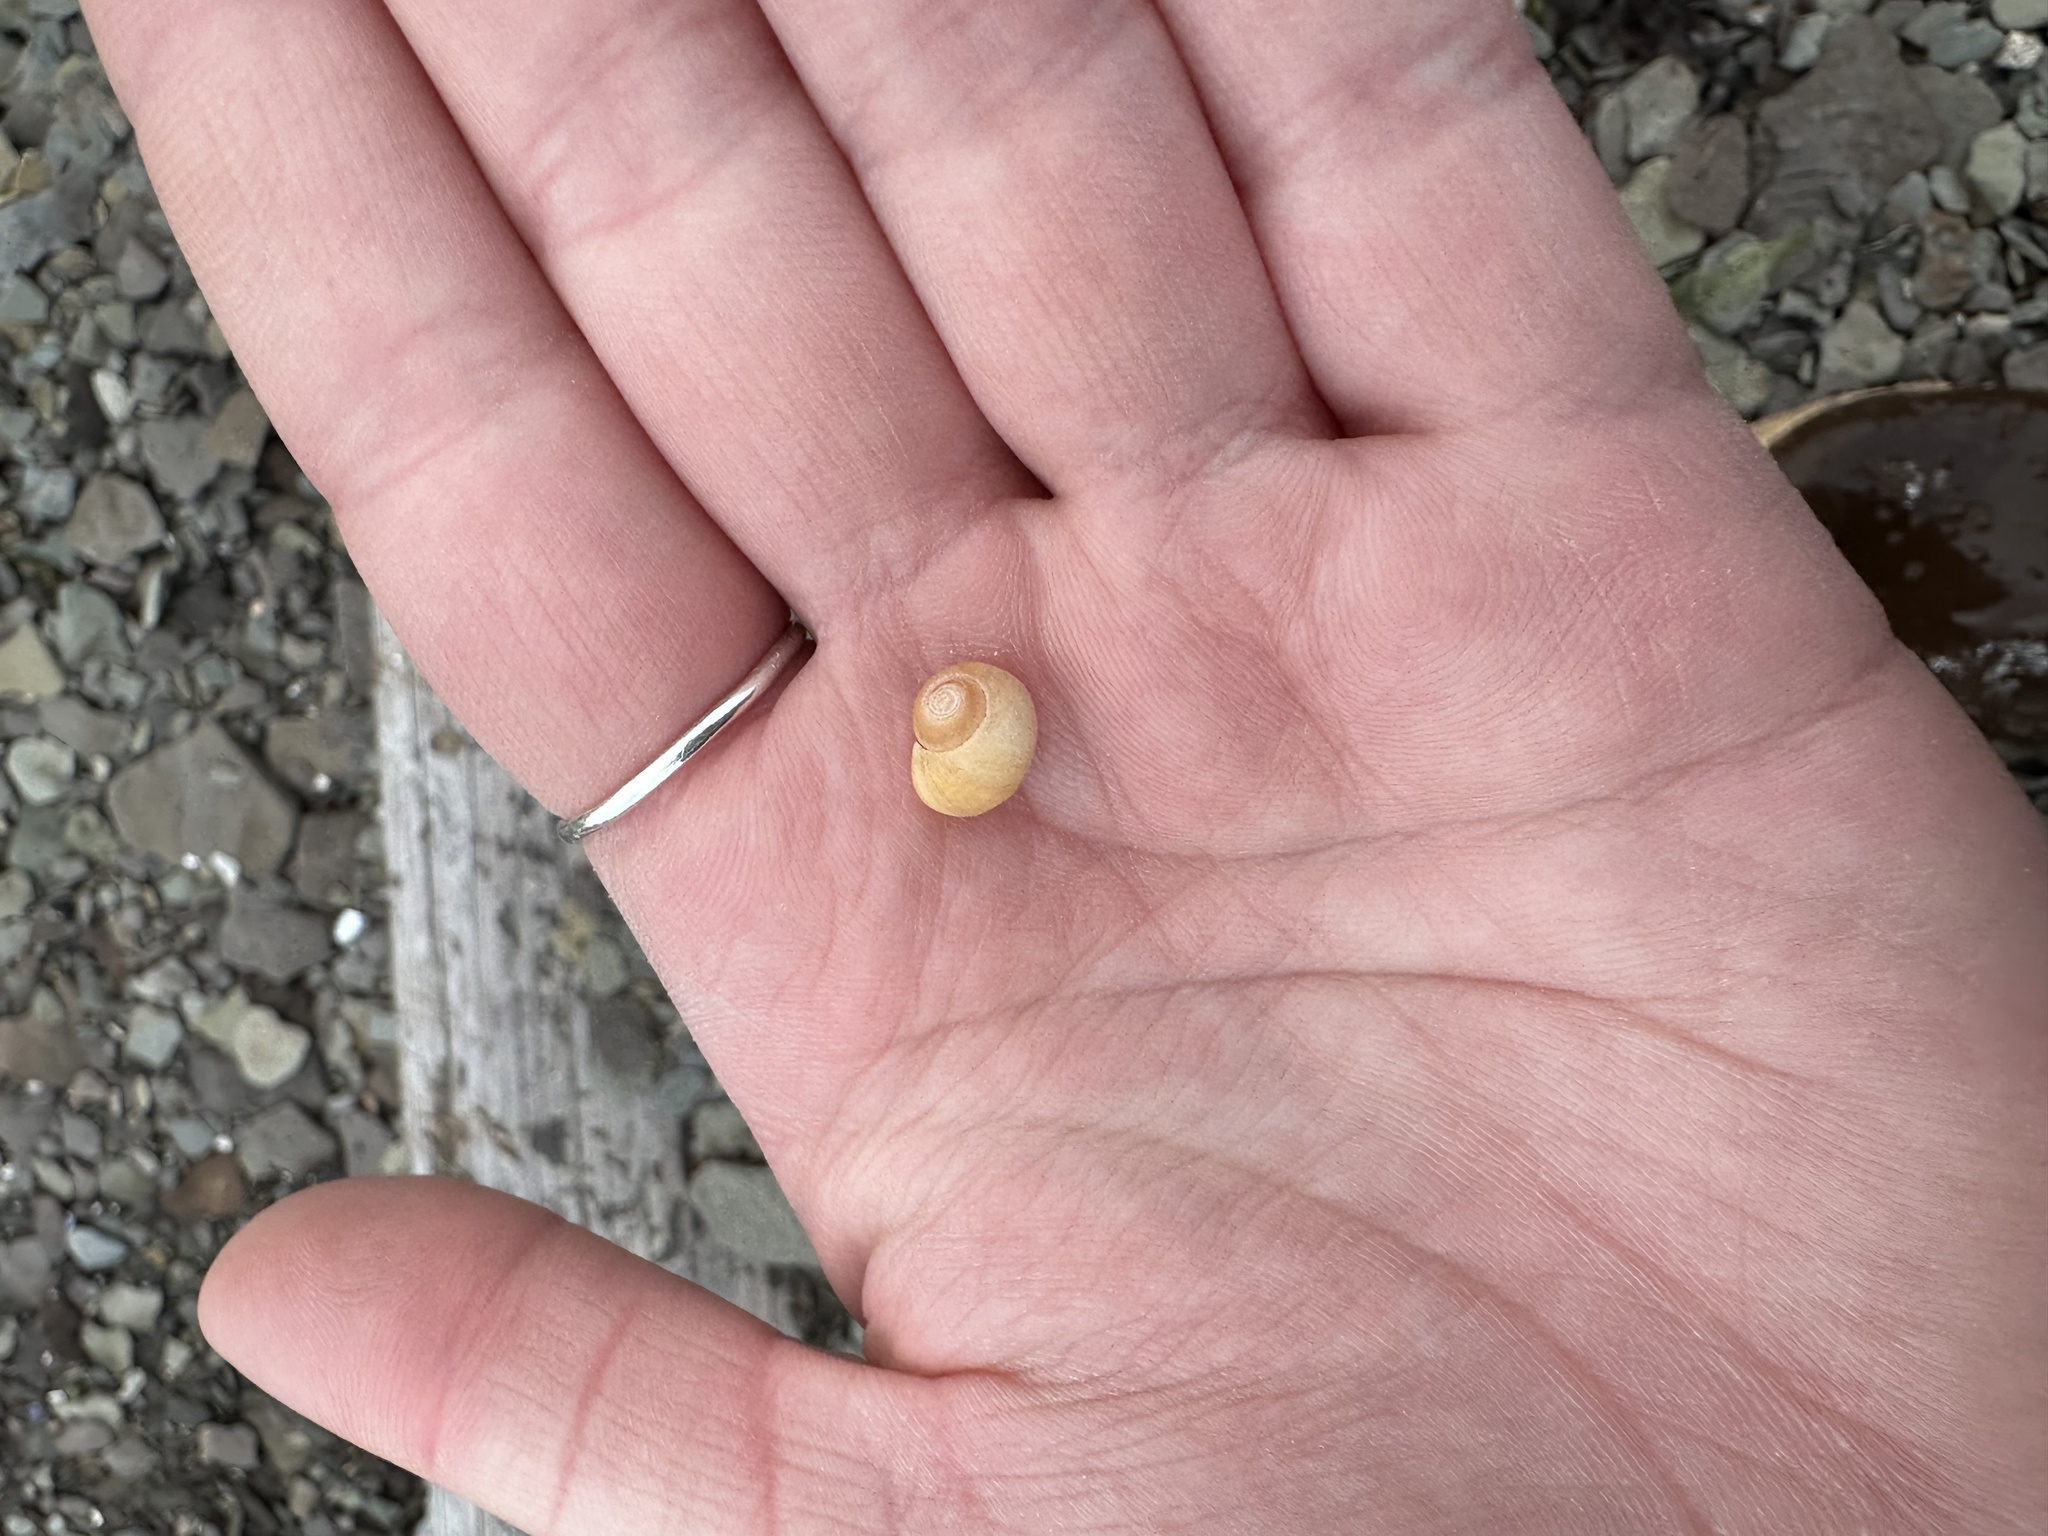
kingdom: Animalia
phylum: Mollusca
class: Gastropoda
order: Littorinimorpha
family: Littorinidae
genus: Littorina
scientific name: Littorina obtusata
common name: Flat periwinkle
